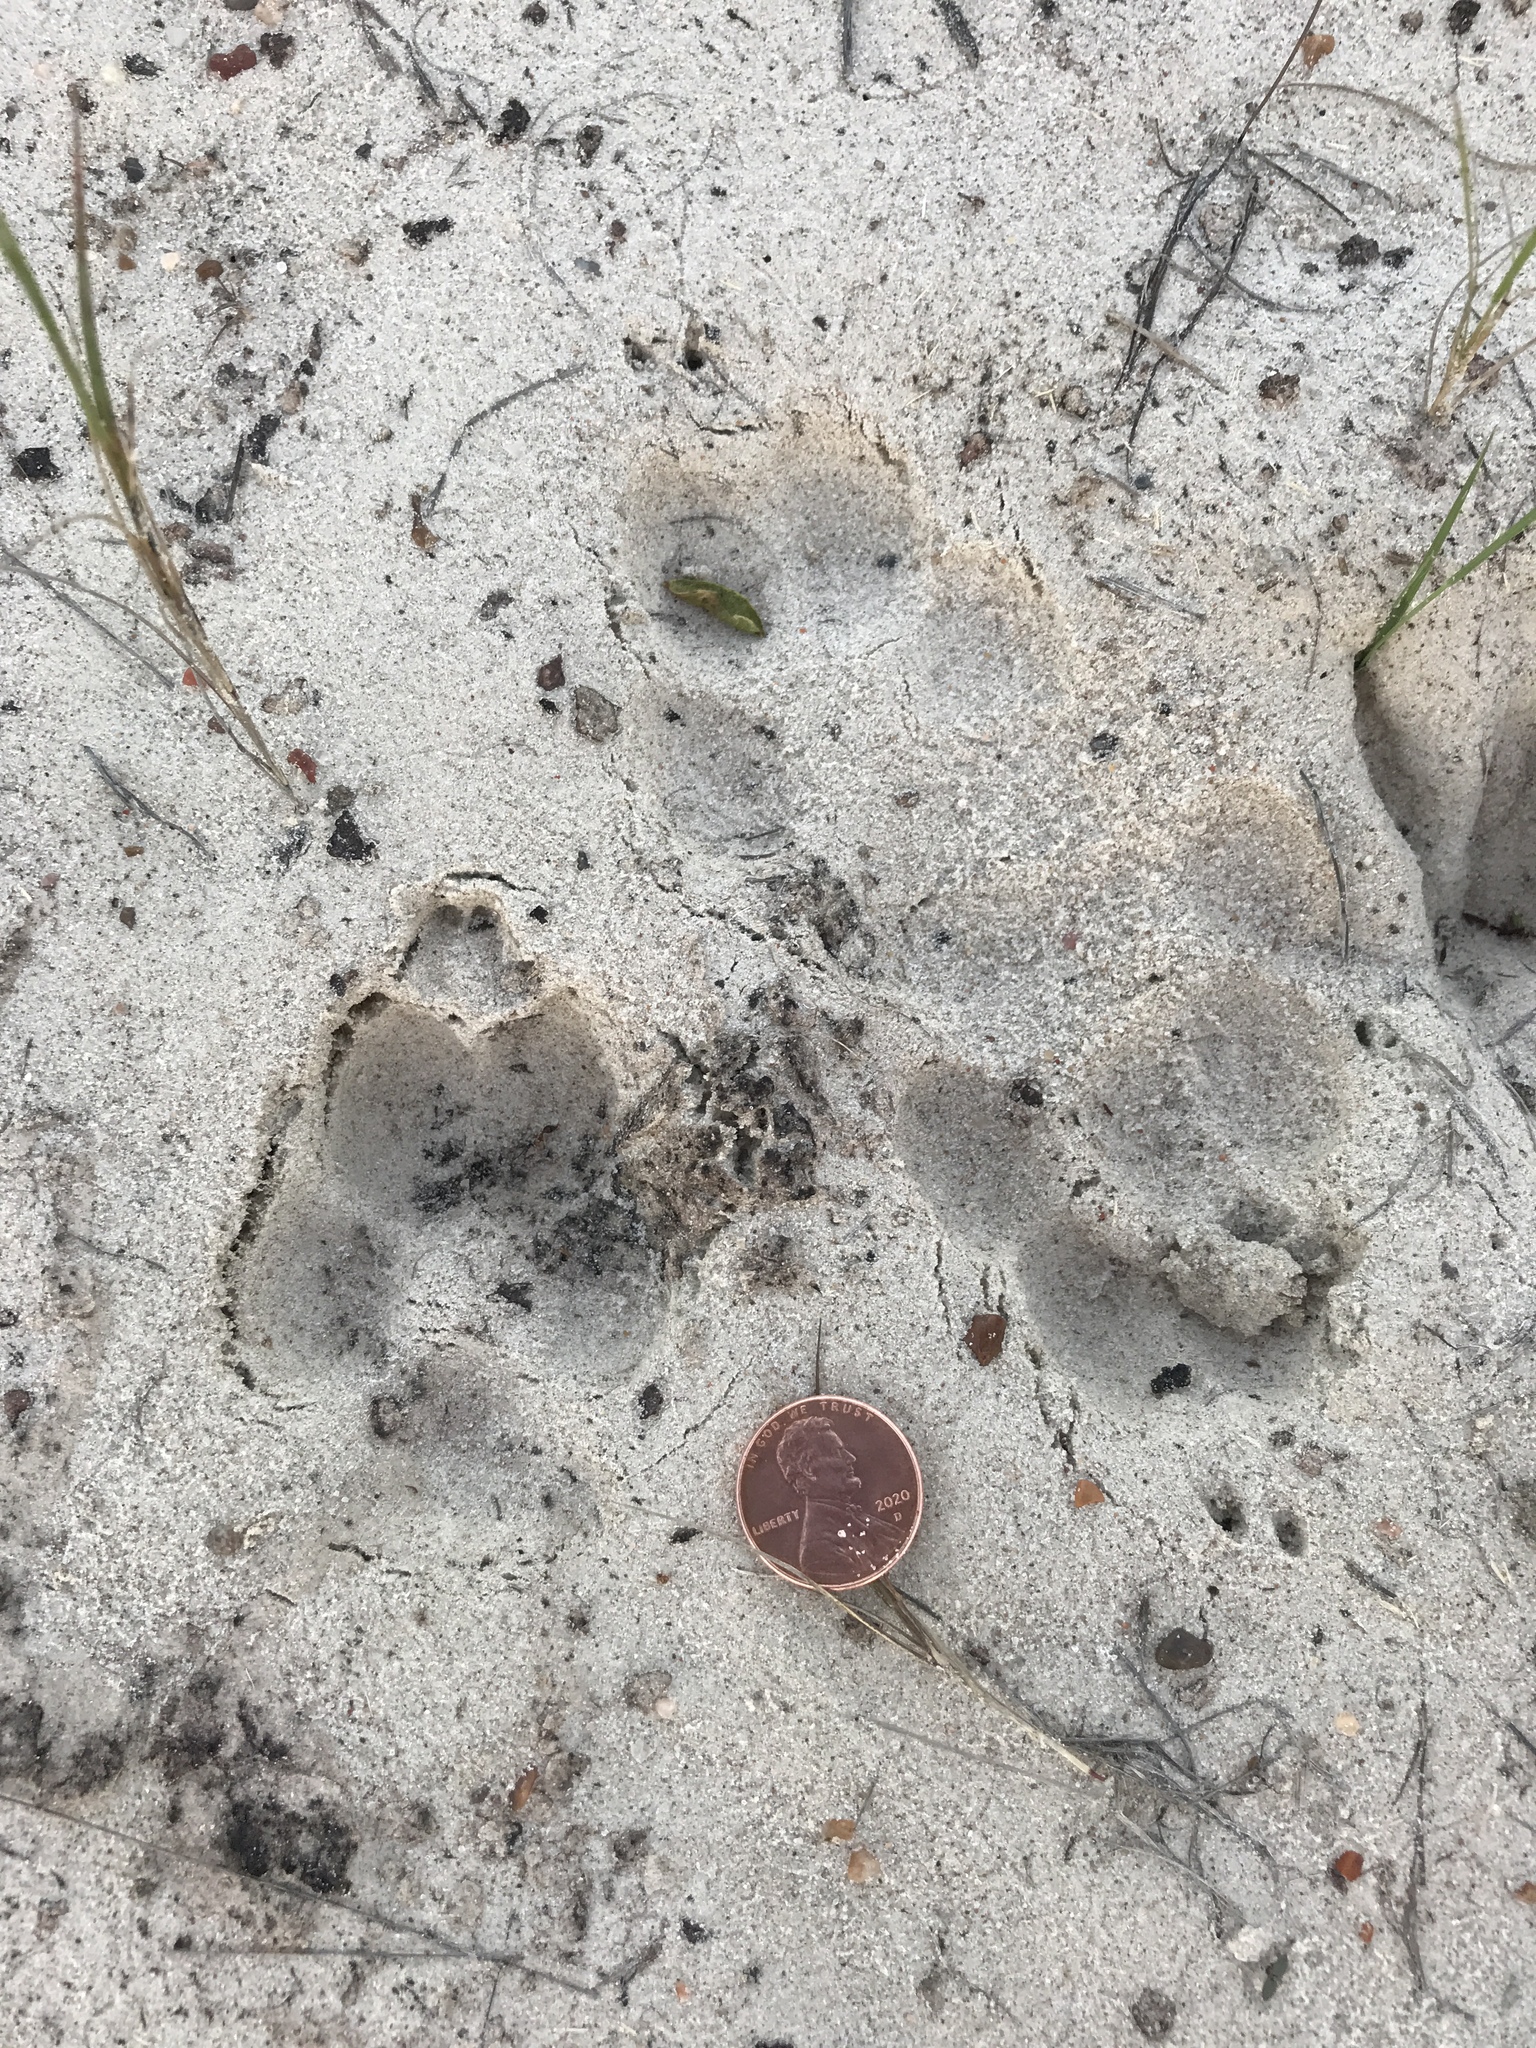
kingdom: Animalia
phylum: Chordata
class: Mammalia
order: Carnivora
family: Canidae
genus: Canis
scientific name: Canis latrans
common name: Coyote
